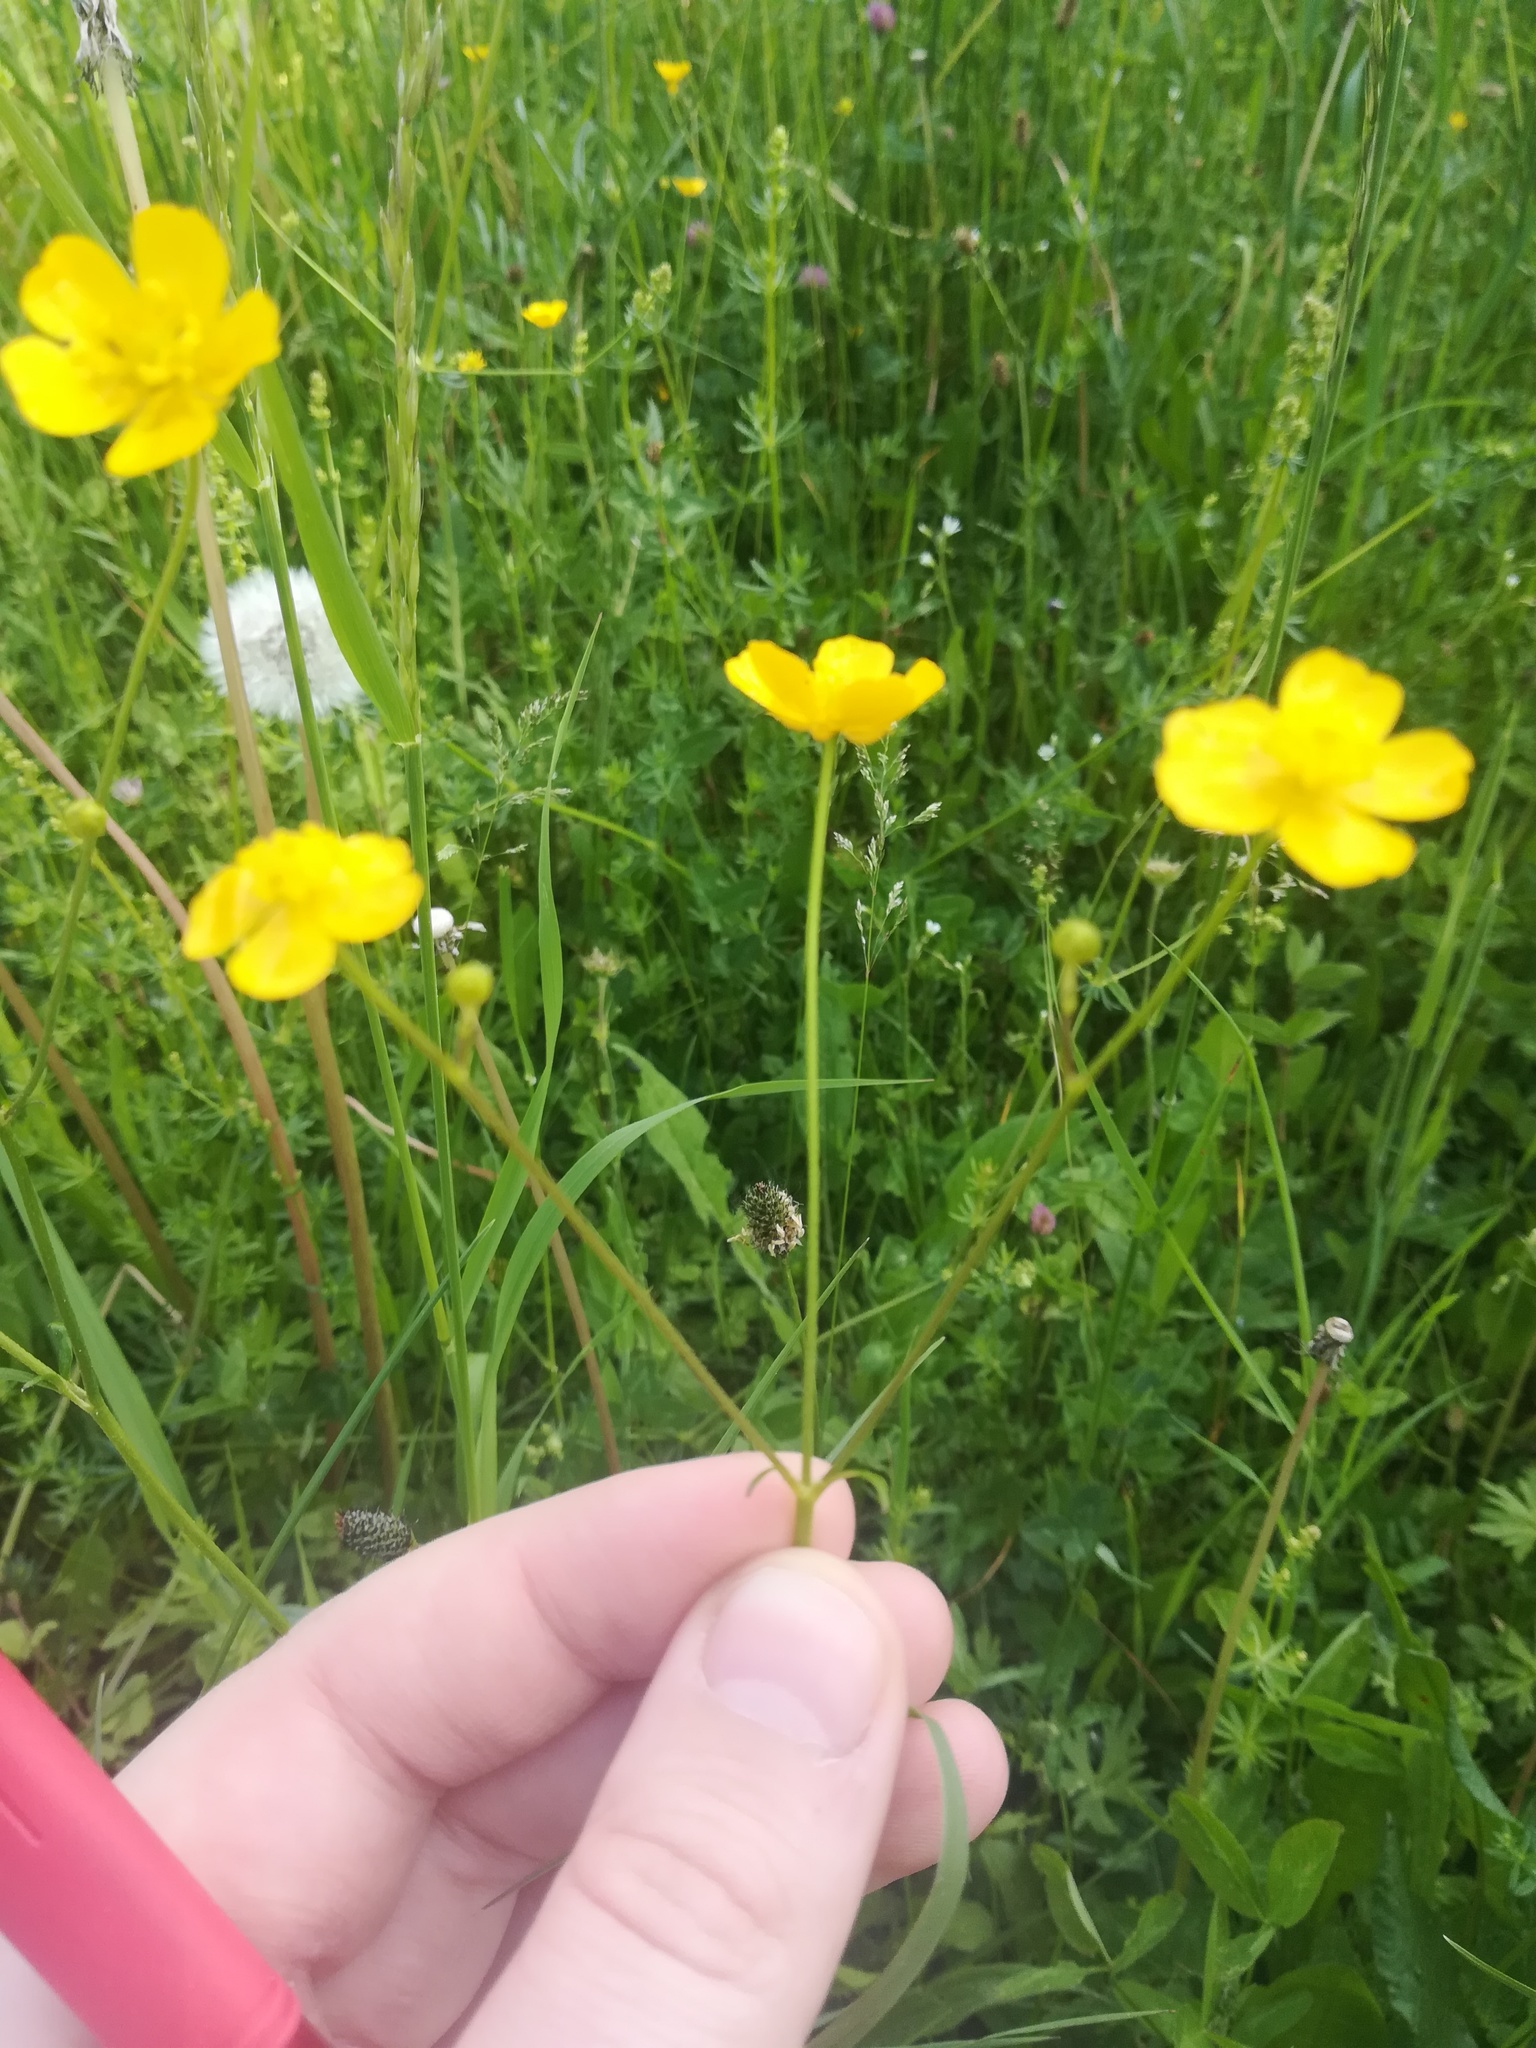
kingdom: Plantae
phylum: Tracheophyta
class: Magnoliopsida
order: Ranunculales
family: Ranunculaceae
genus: Ranunculus
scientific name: Ranunculus acris
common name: Meadow buttercup
